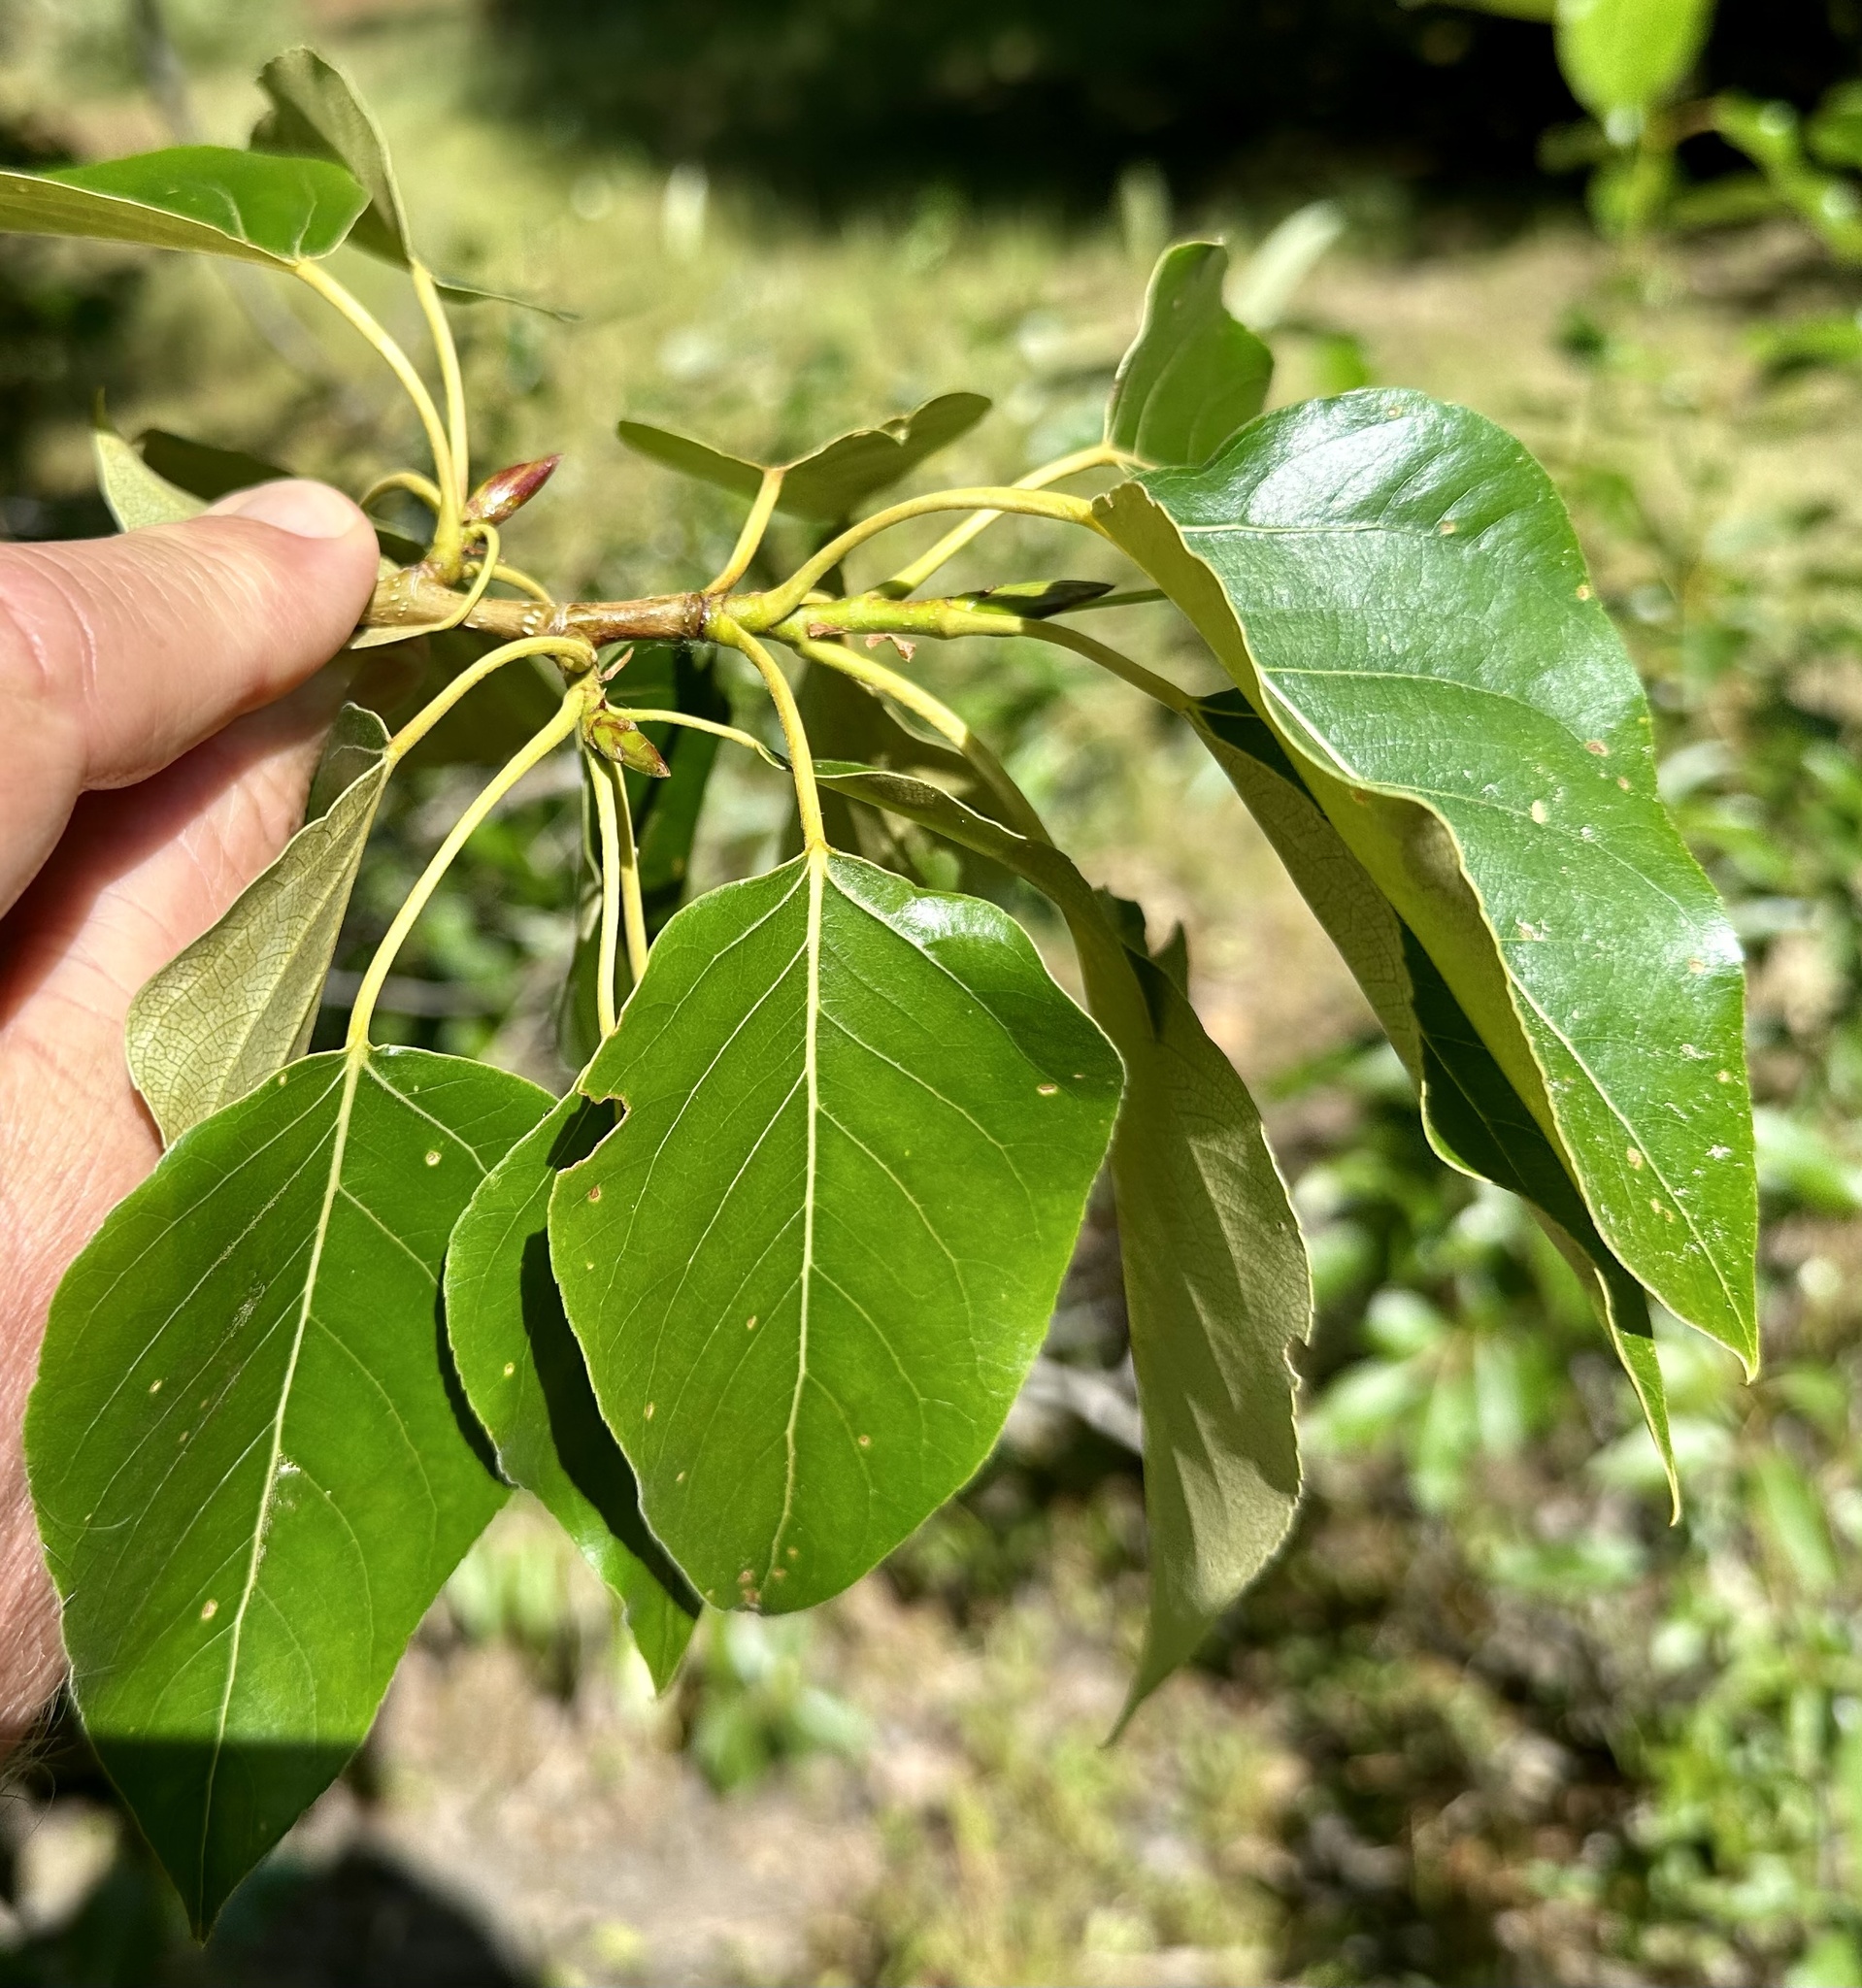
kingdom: Plantae
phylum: Tracheophyta
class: Magnoliopsida
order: Malpighiales
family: Salicaceae
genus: Populus
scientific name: Populus trichocarpa
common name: Black cottonwood
